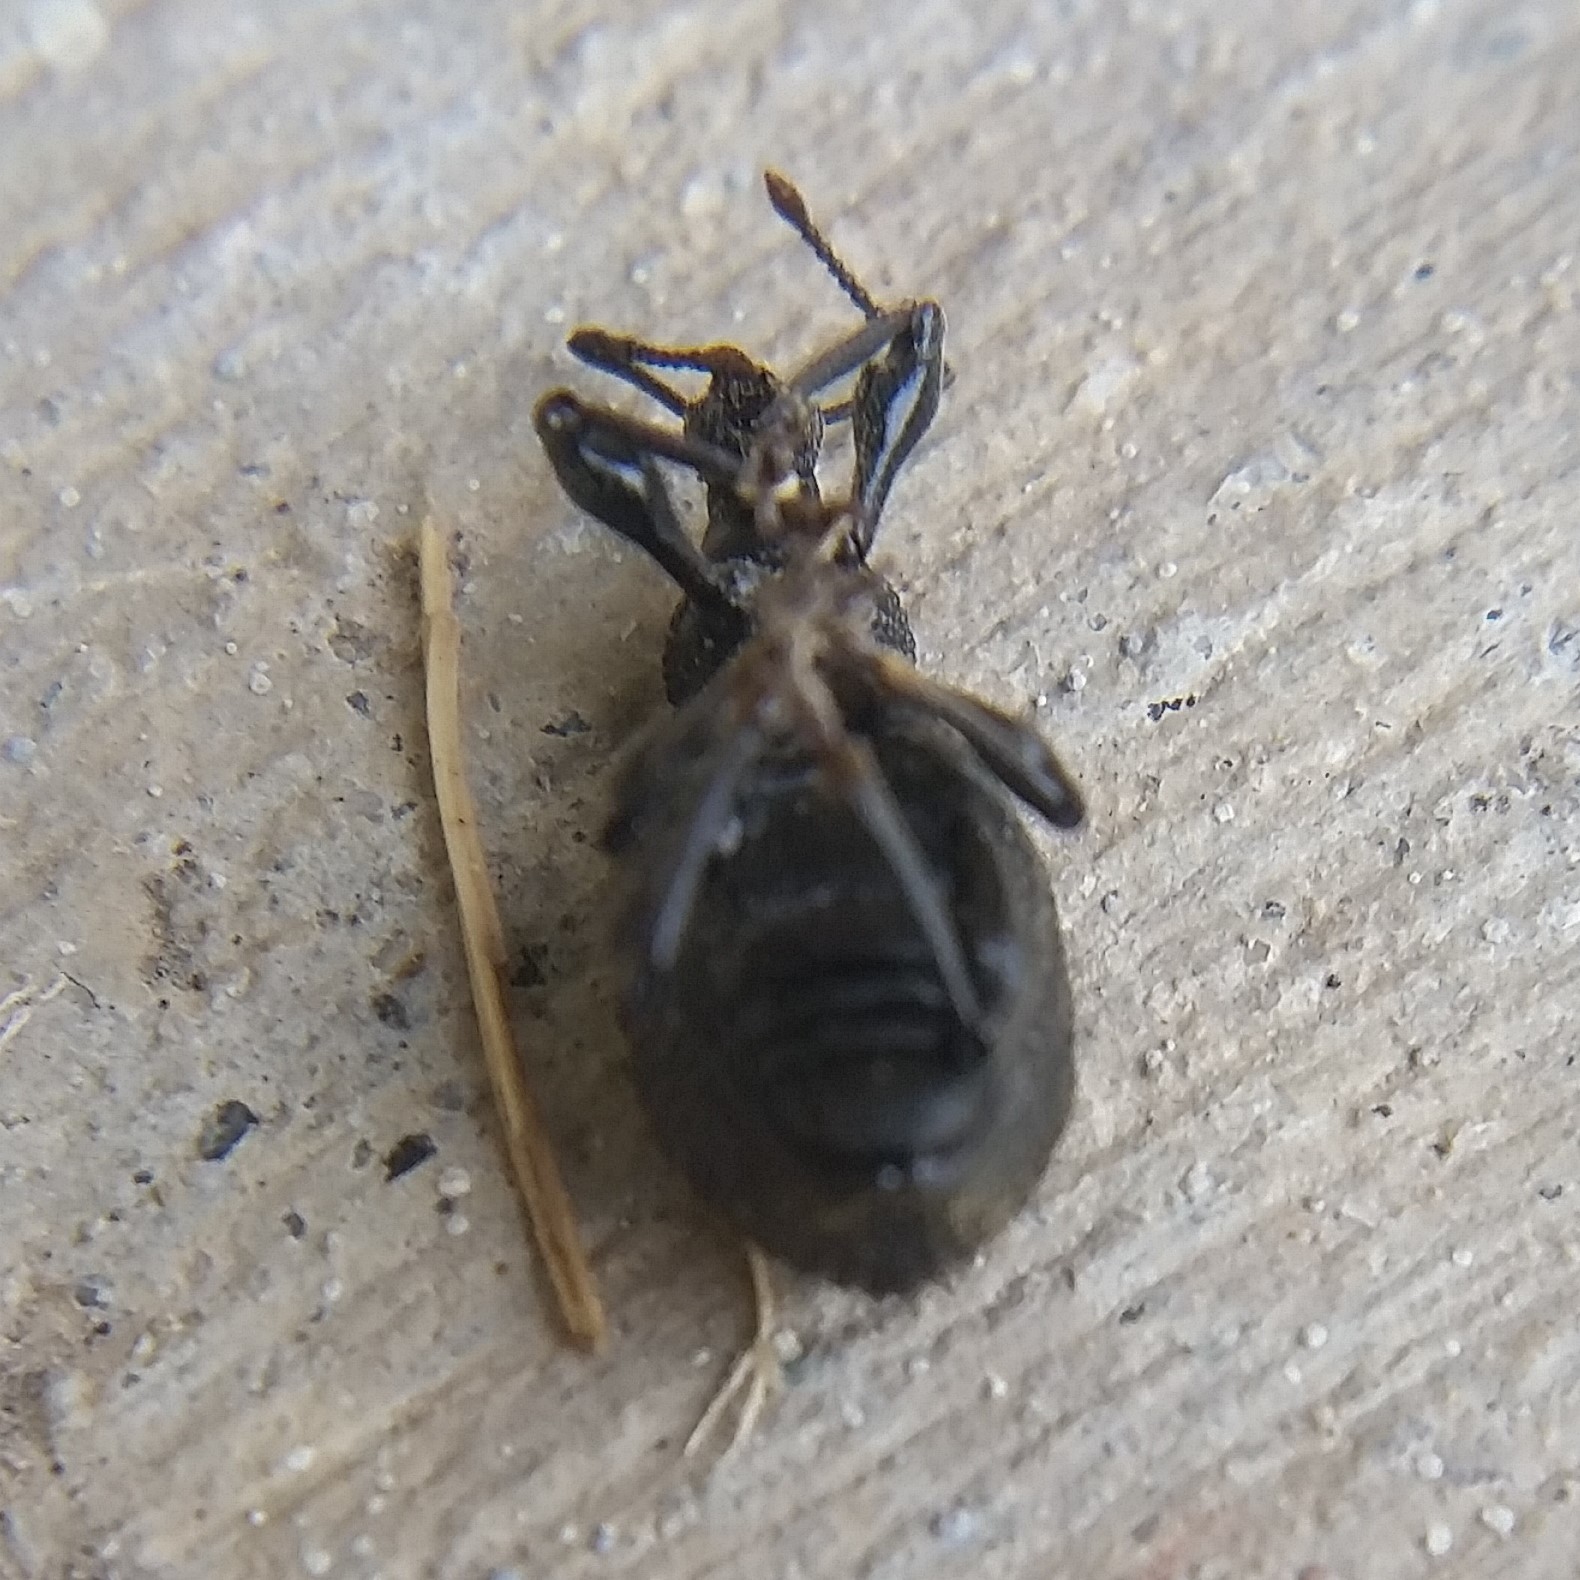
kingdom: Animalia
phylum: Arthropoda
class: Insecta
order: Coleoptera
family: Curculionidae
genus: Otiorhynchus
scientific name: Otiorhynchus sulcatus
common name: Black vine weevil
